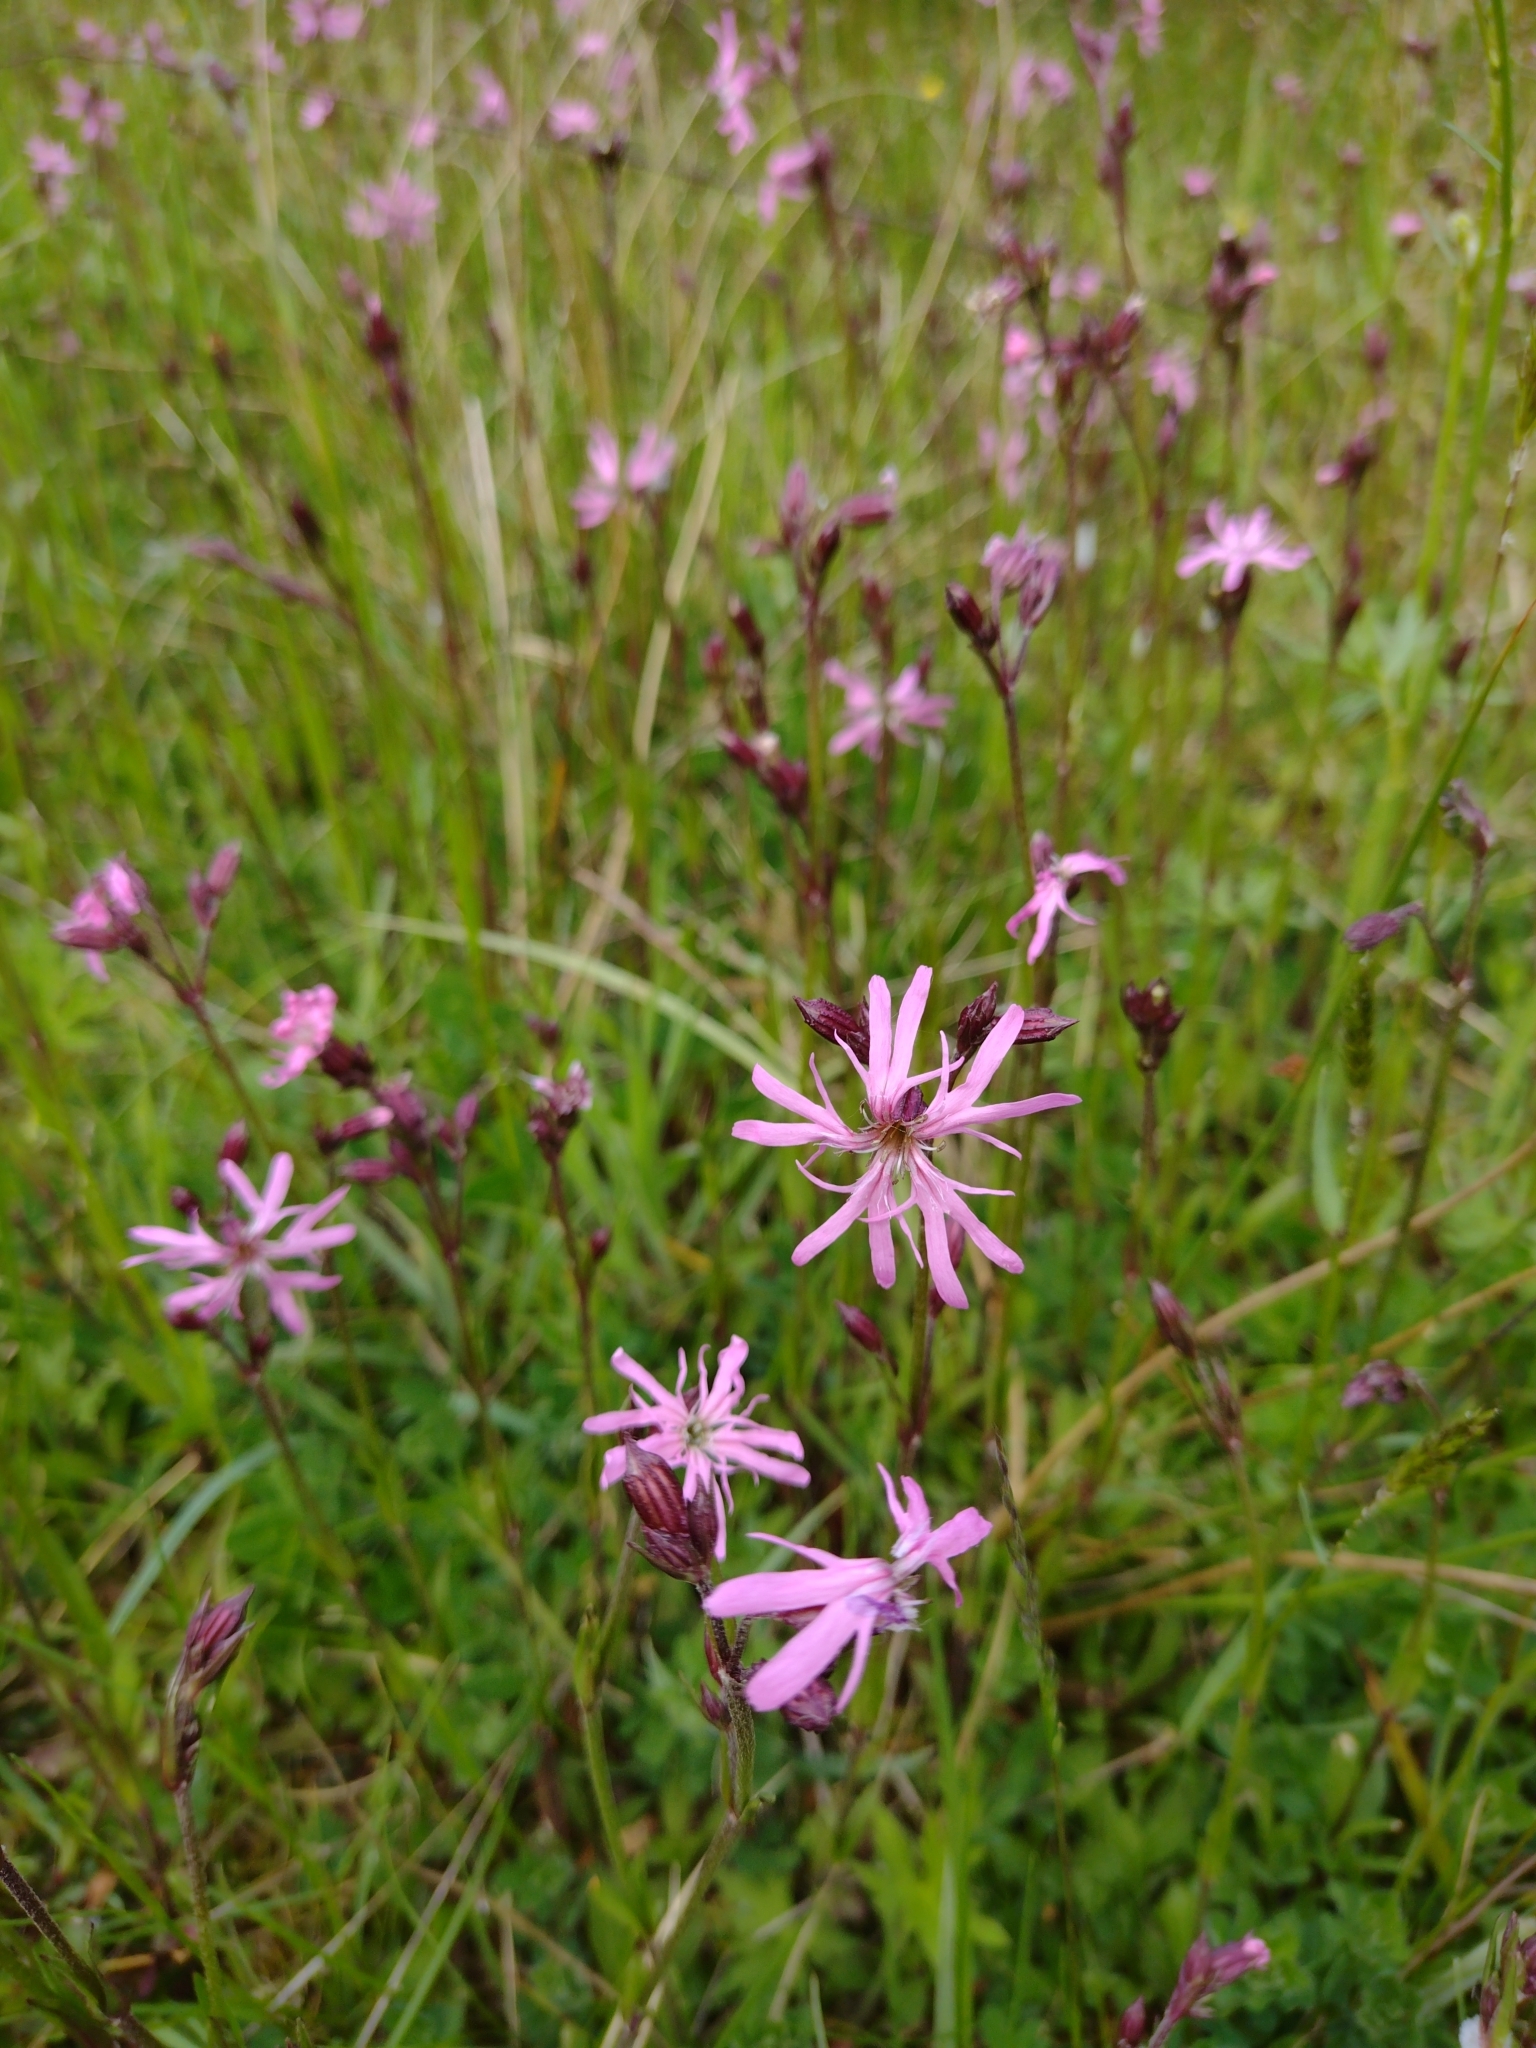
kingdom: Plantae
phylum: Tracheophyta
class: Magnoliopsida
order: Caryophyllales
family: Caryophyllaceae
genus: Silene
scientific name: Silene flos-cuculi
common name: Ragged-robin
